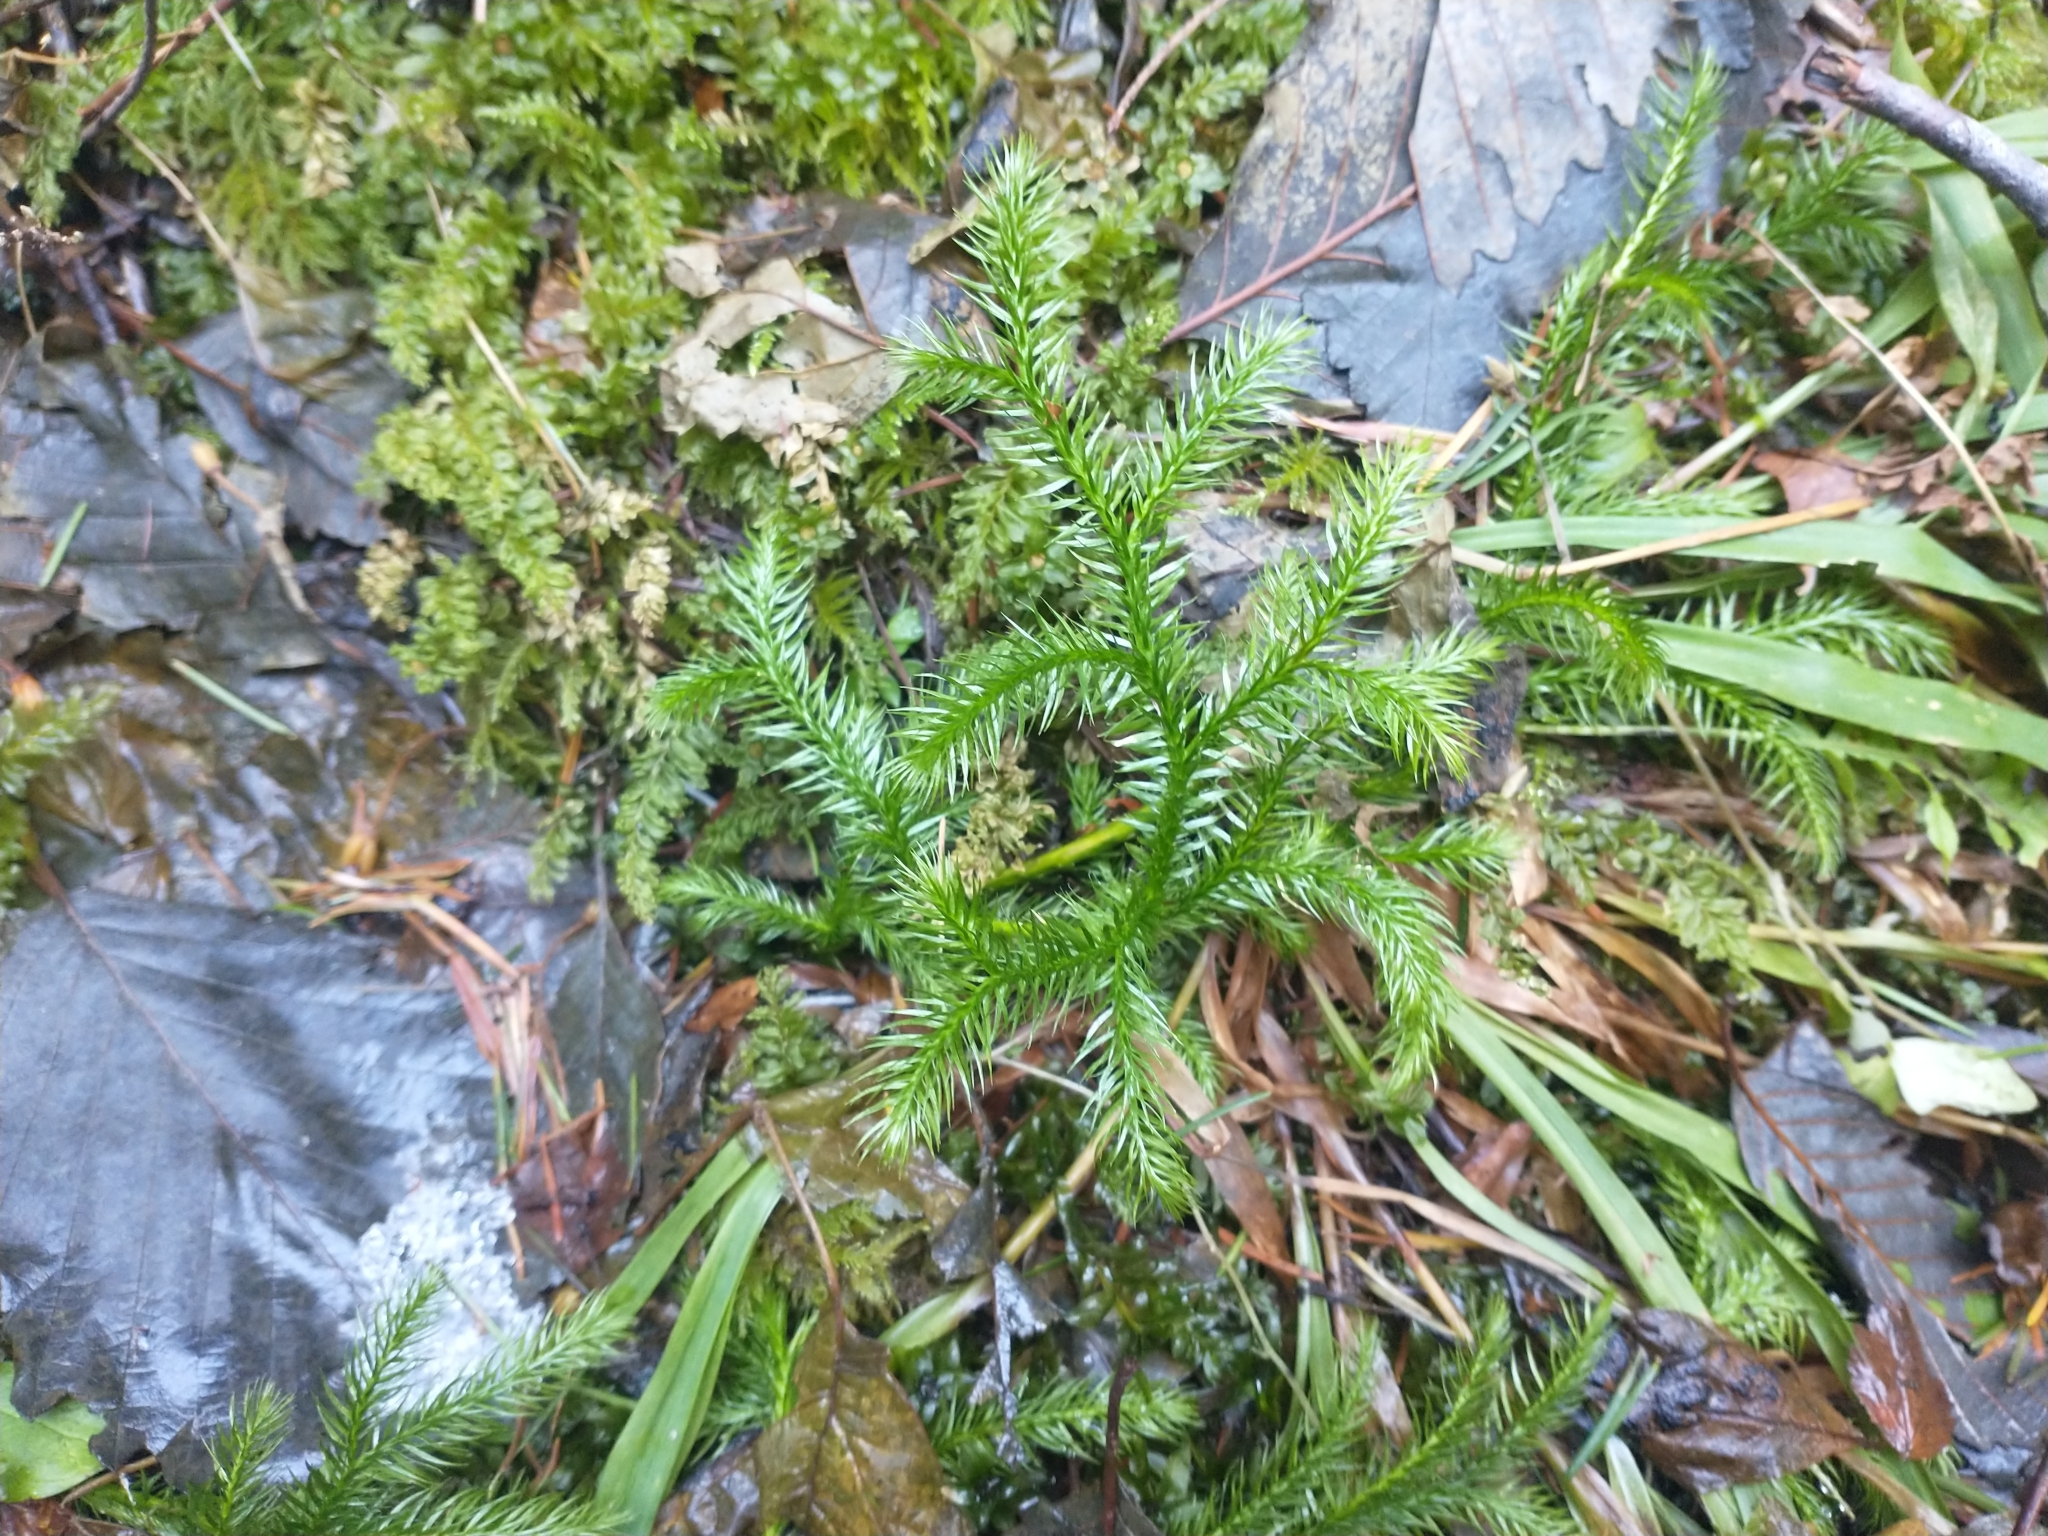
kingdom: Plantae
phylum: Tracheophyta
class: Lycopodiopsida
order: Lycopodiales
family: Lycopodiaceae
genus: Lycopodium
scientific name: Lycopodium clavatum
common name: Stag's-horn clubmoss
